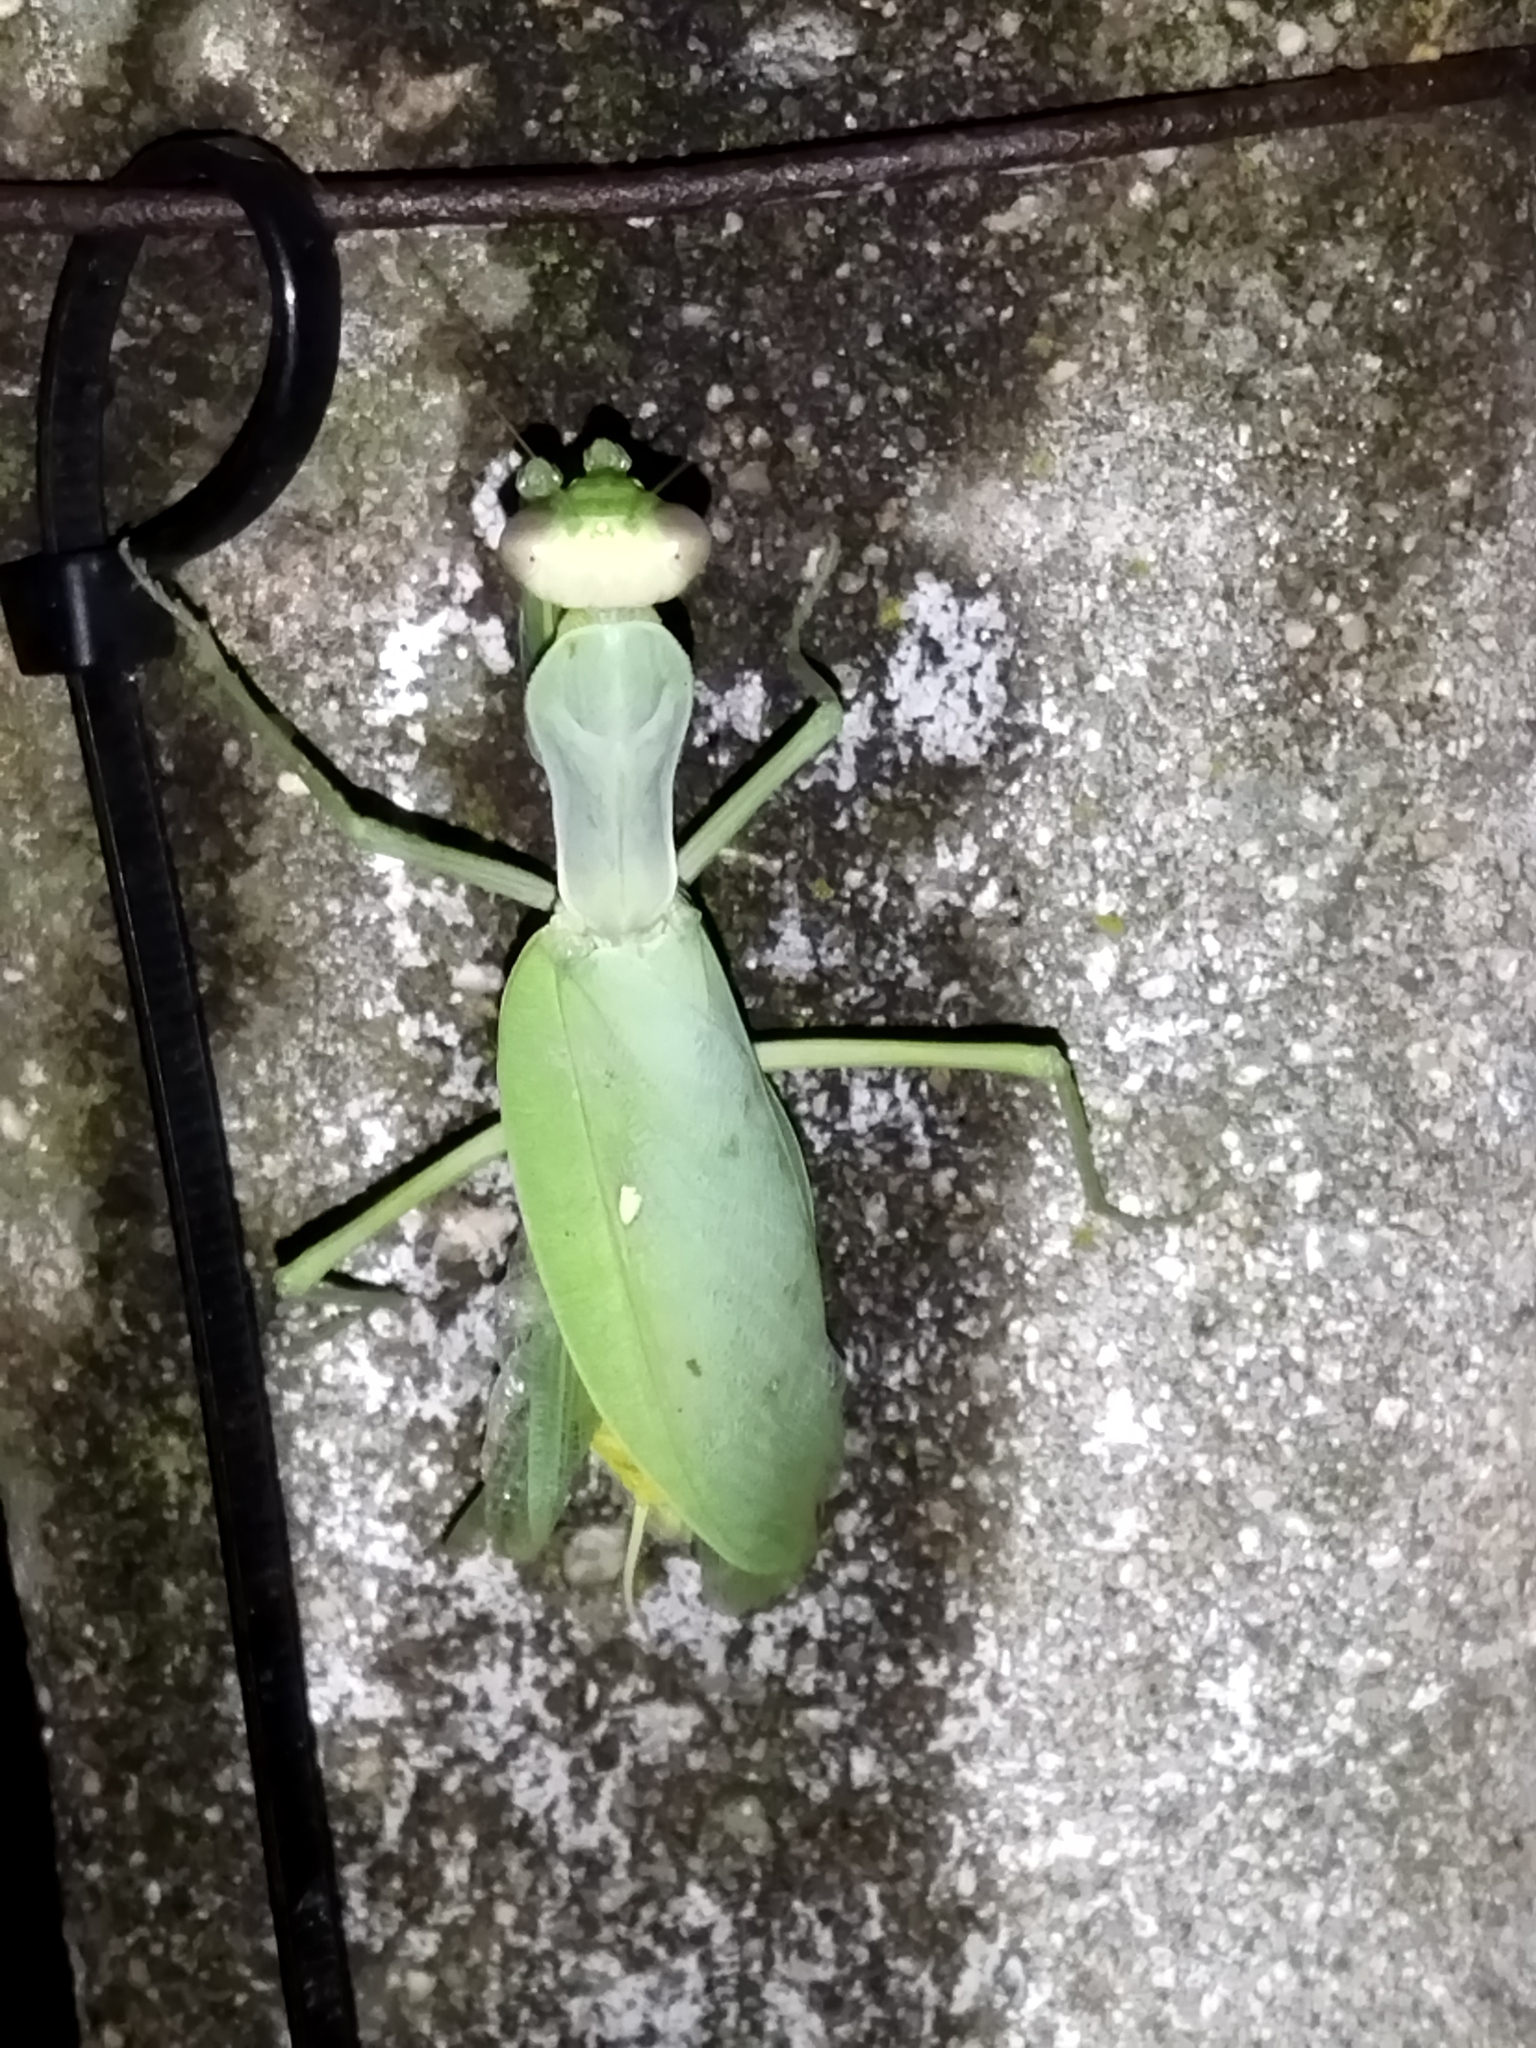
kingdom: Animalia
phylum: Arthropoda
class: Insecta
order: Mantodea
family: Mantidae
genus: Hierodula
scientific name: Hierodula transcaucasica
